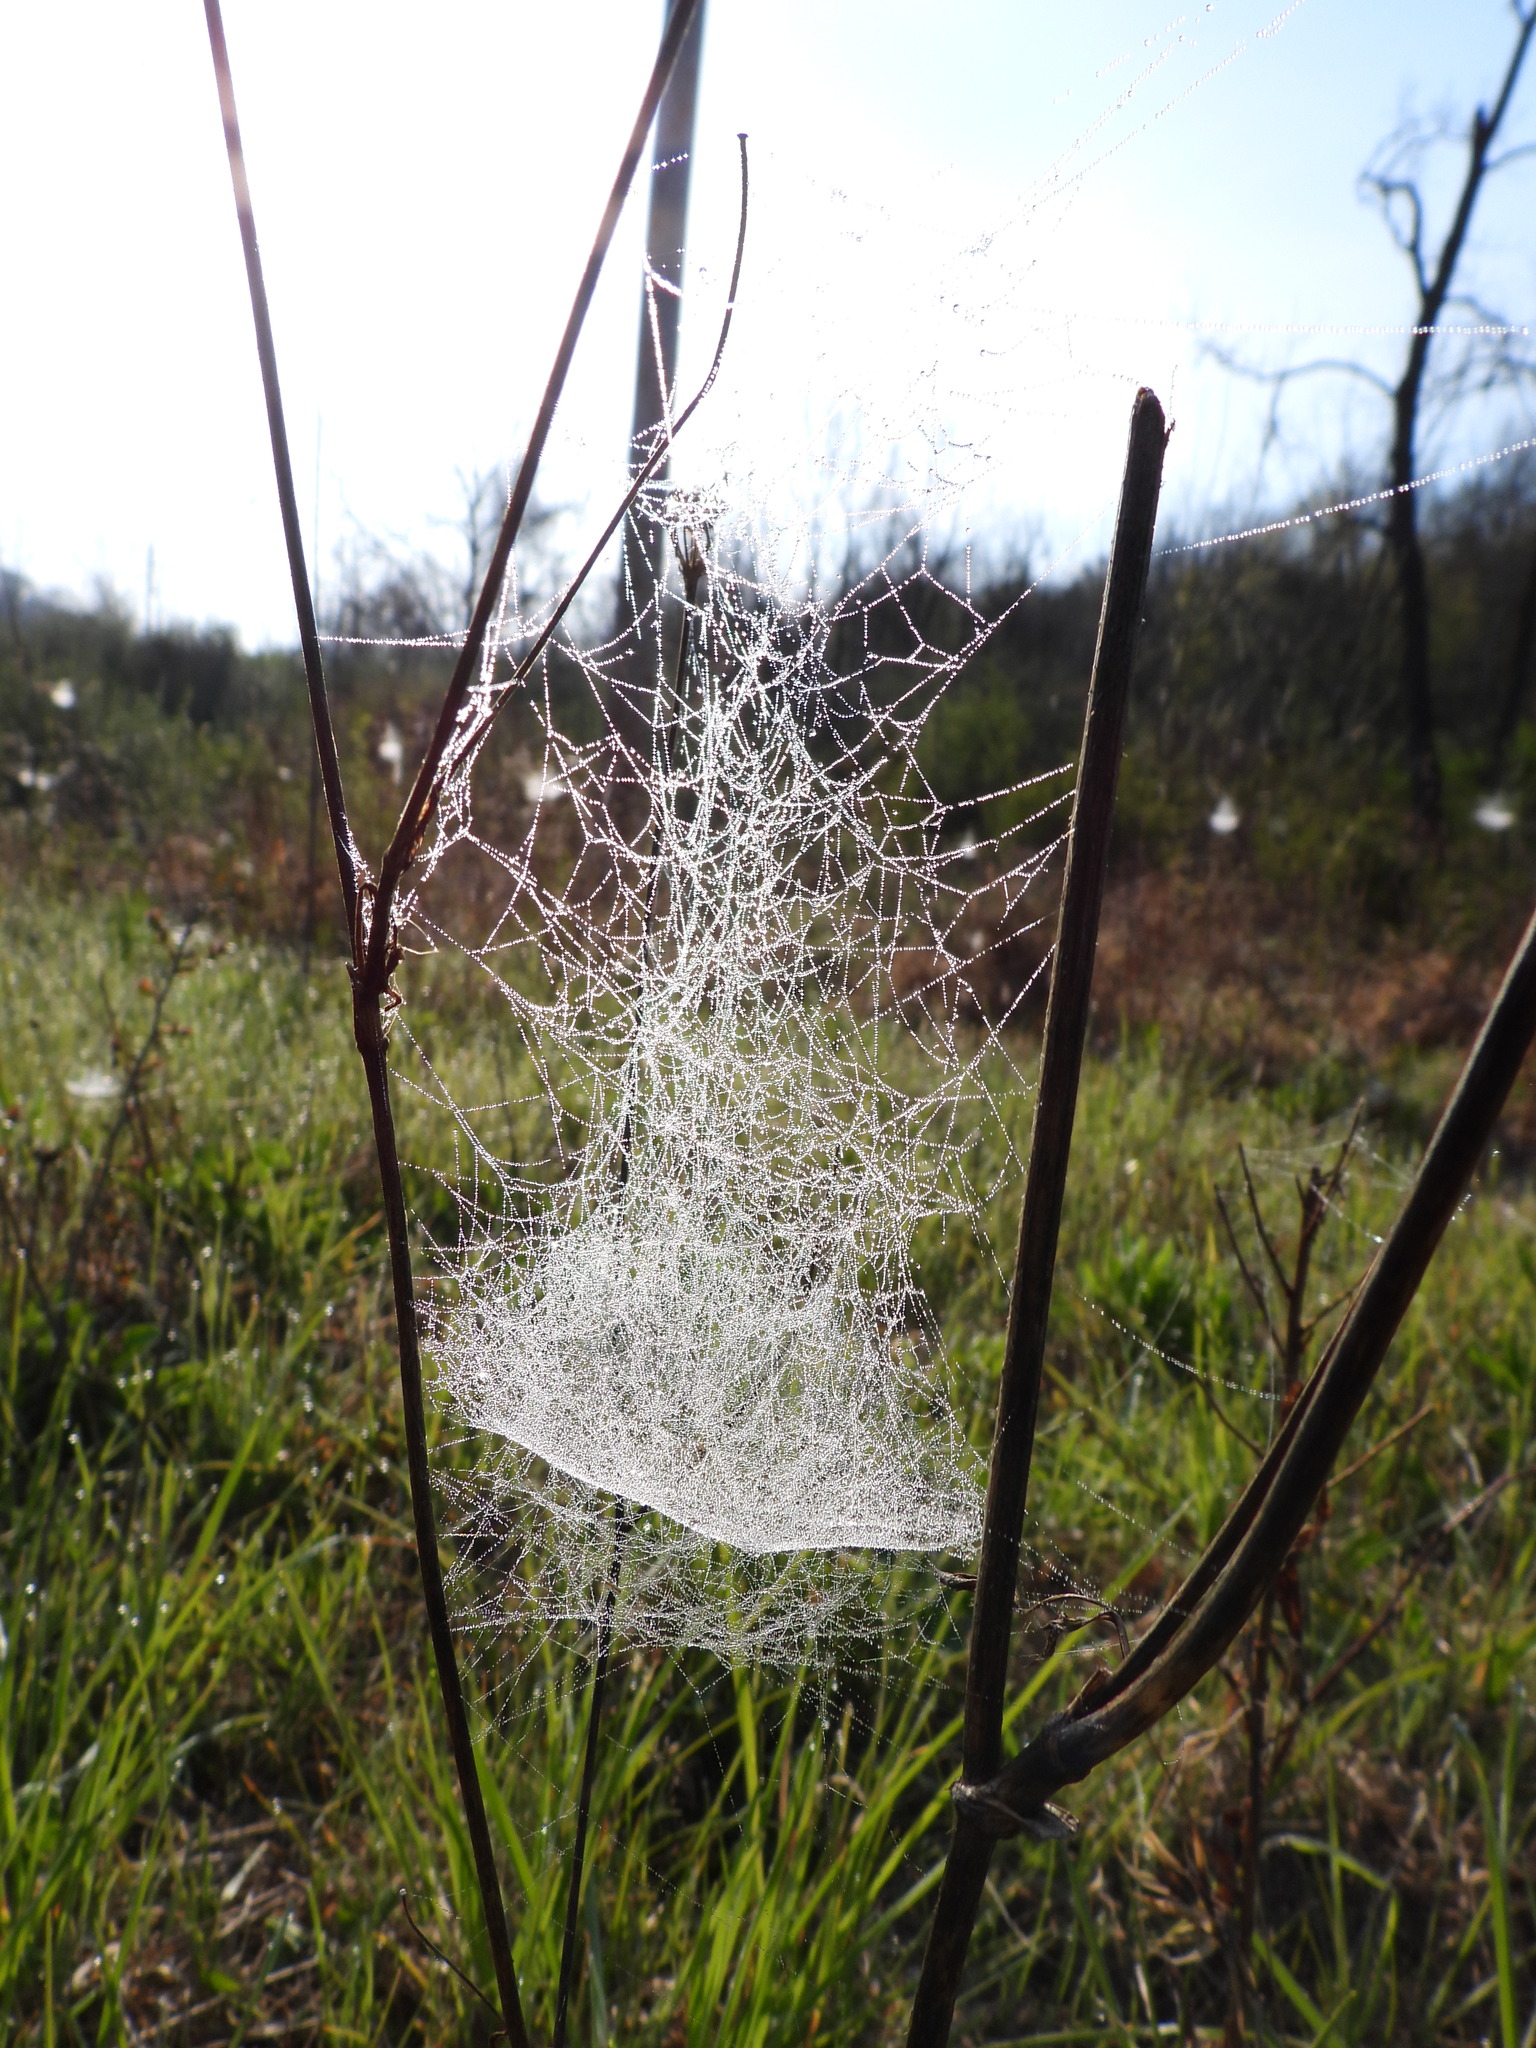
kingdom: Animalia
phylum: Arthropoda
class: Arachnida
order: Araneae
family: Linyphiidae
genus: Frontinella
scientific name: Frontinella pyramitela
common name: Bowl-and-doily spider
